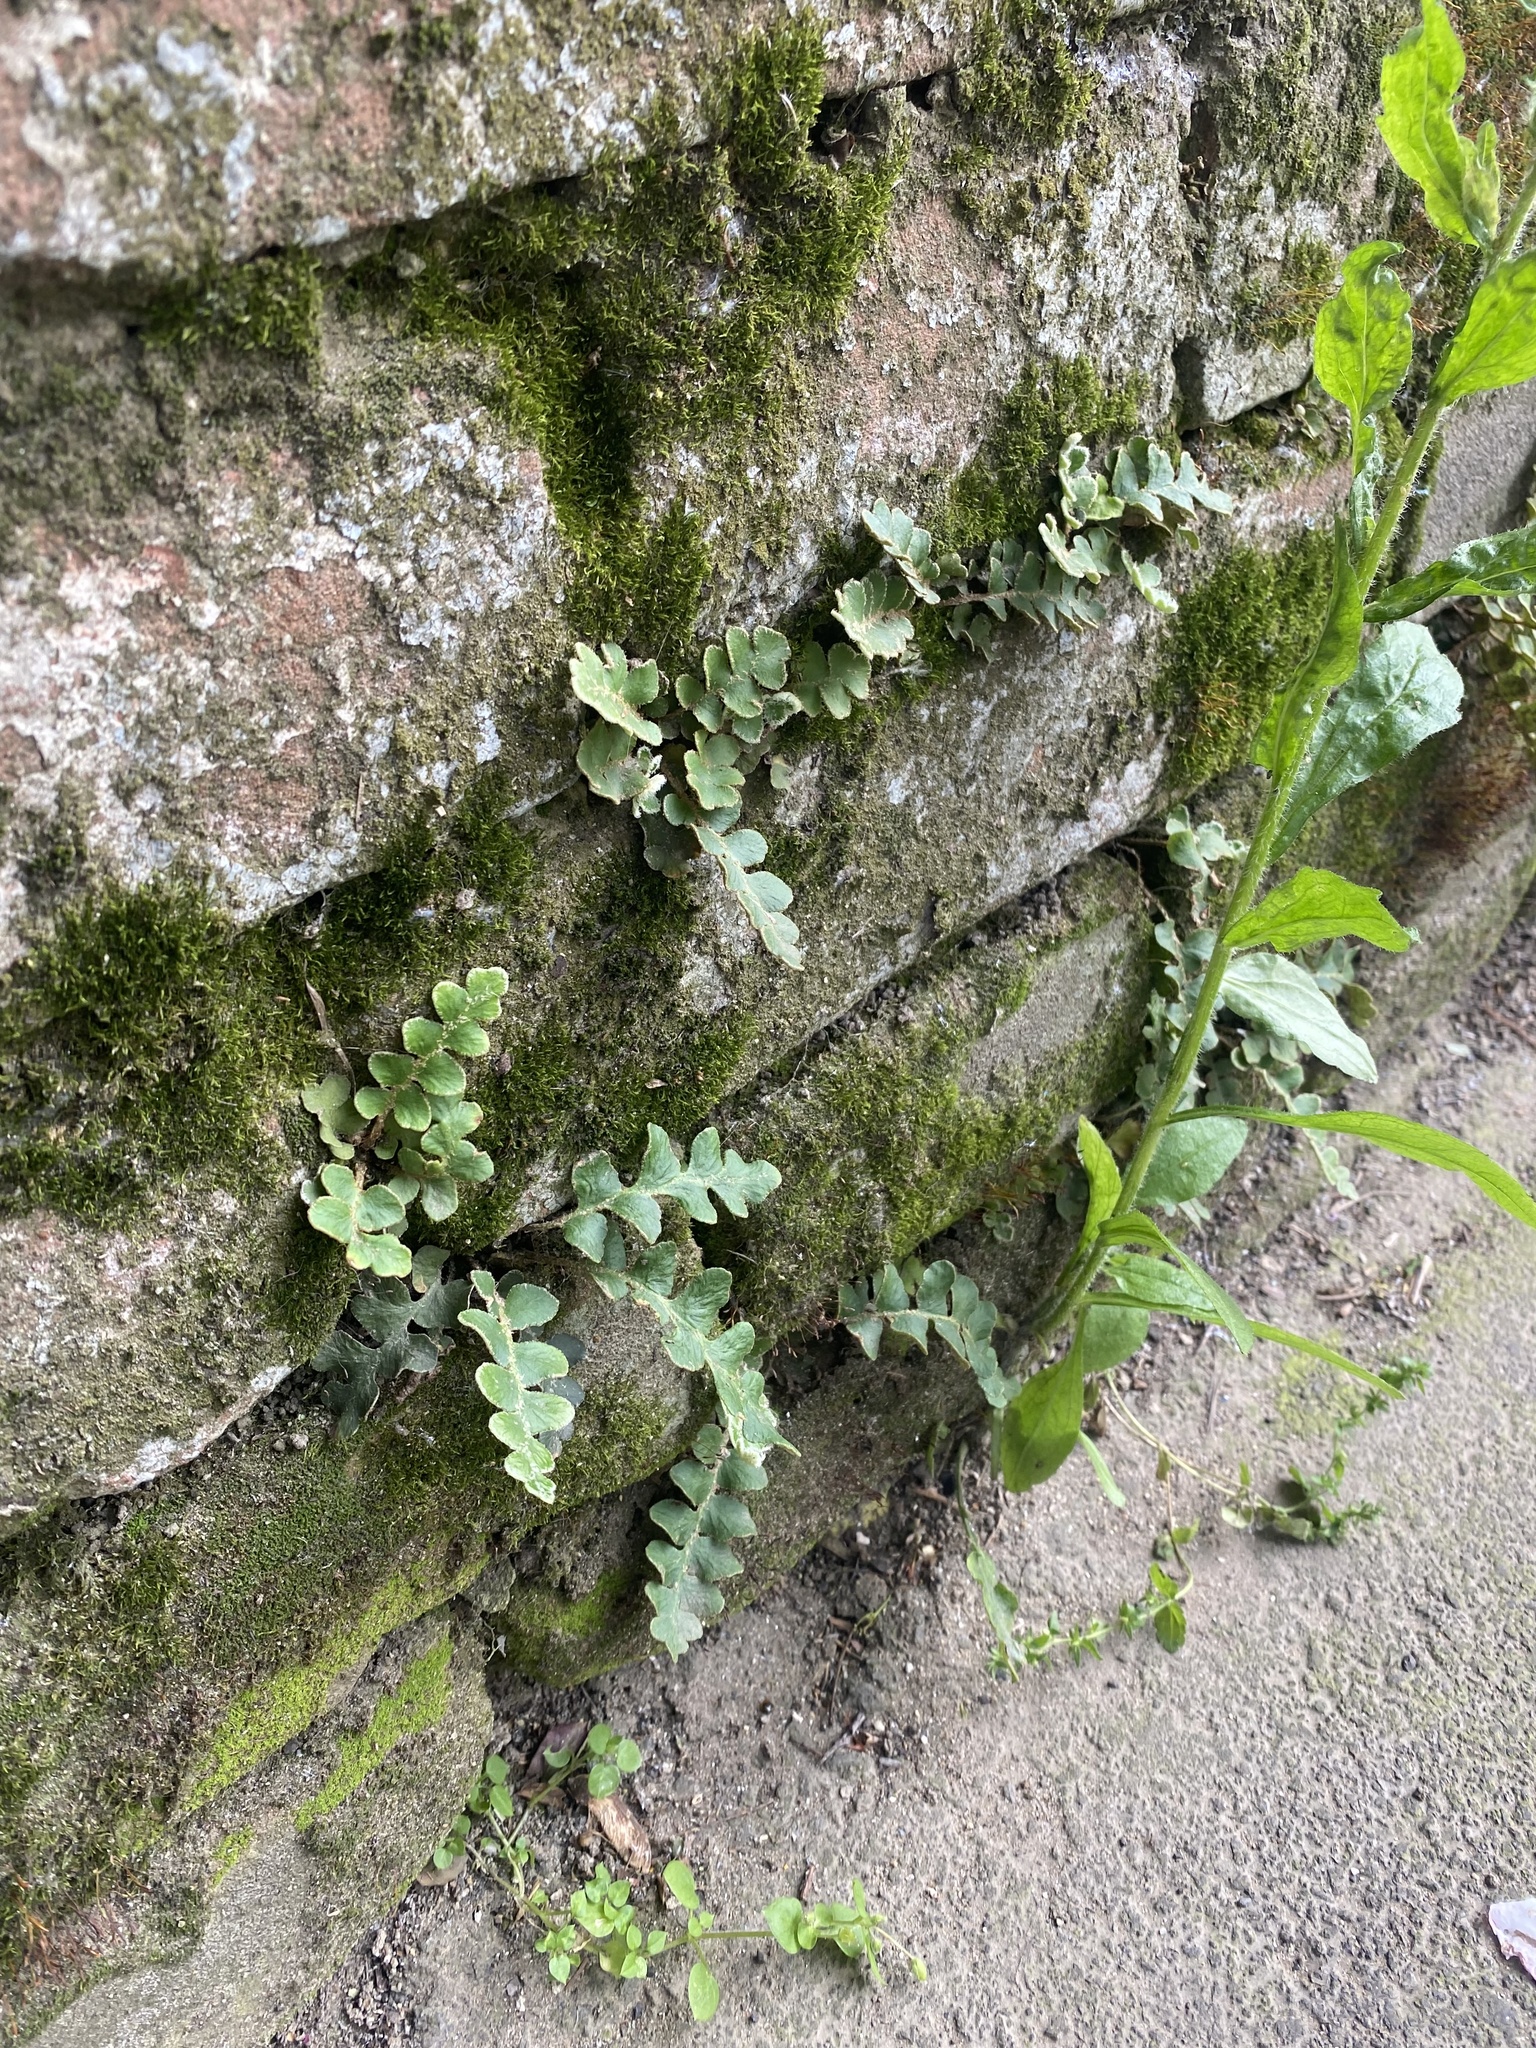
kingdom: Plantae
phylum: Tracheophyta
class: Polypodiopsida
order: Polypodiales
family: Aspleniaceae
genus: Asplenium
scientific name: Asplenium ceterach
